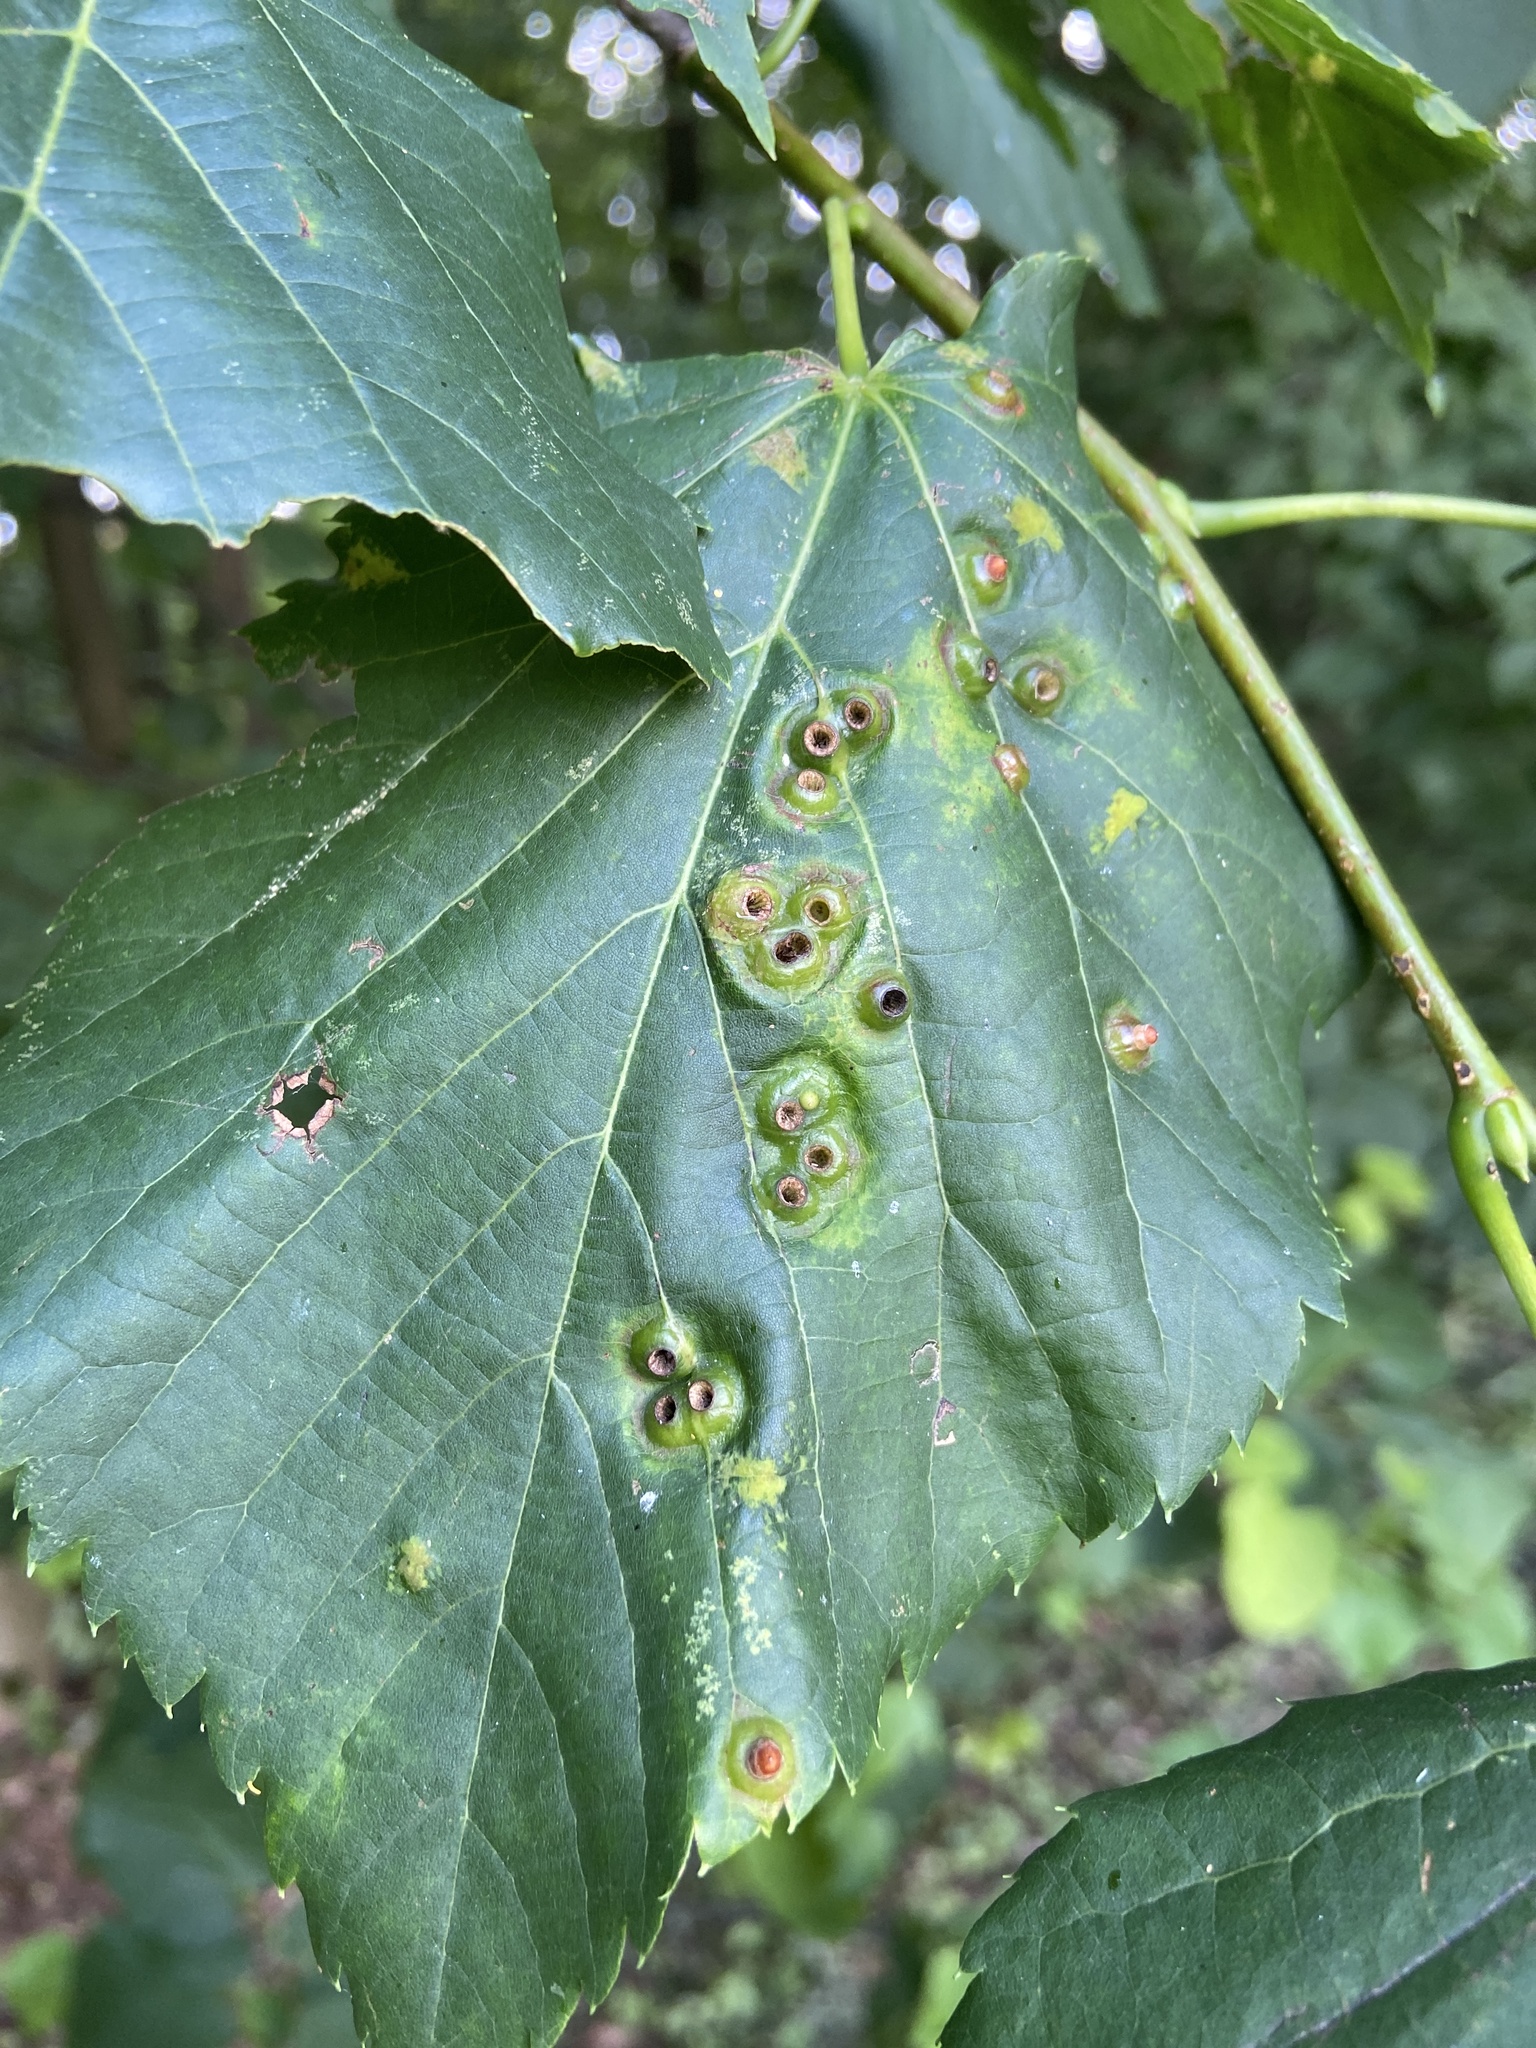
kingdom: Animalia
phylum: Arthropoda
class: Insecta
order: Diptera
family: Cecidomyiidae
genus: Didymomyia
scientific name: Didymomyia tiliacea
